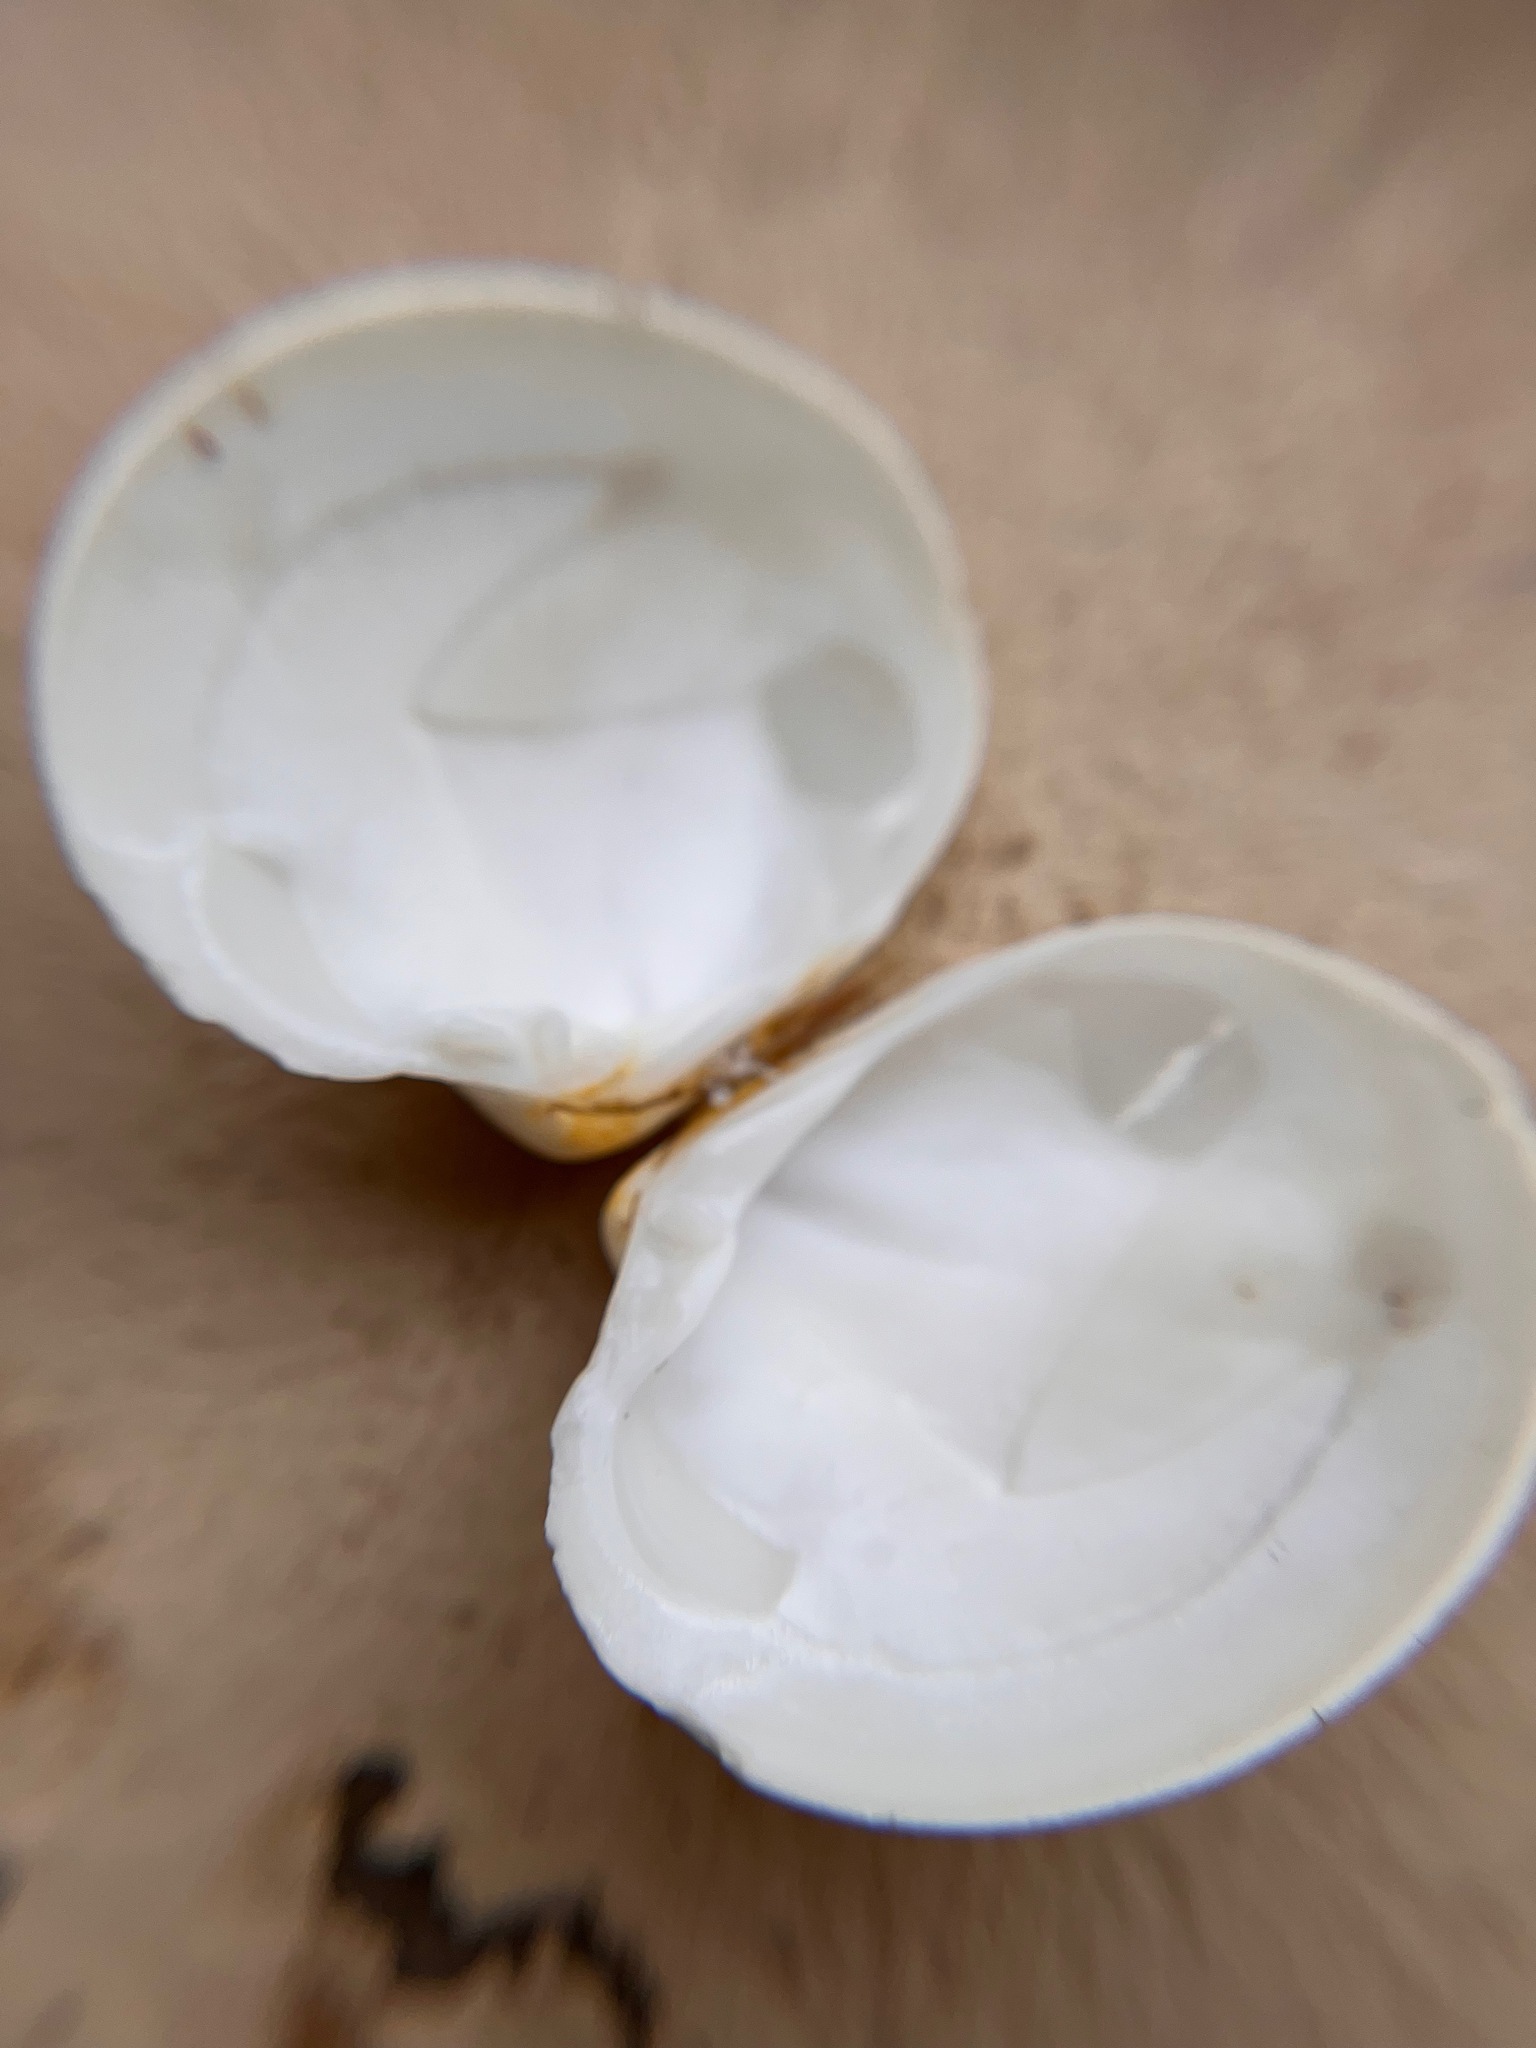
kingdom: Animalia
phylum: Mollusca
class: Bivalvia
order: Venerida
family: Veneridae
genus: Amiantis
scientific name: Amiantis callosa
